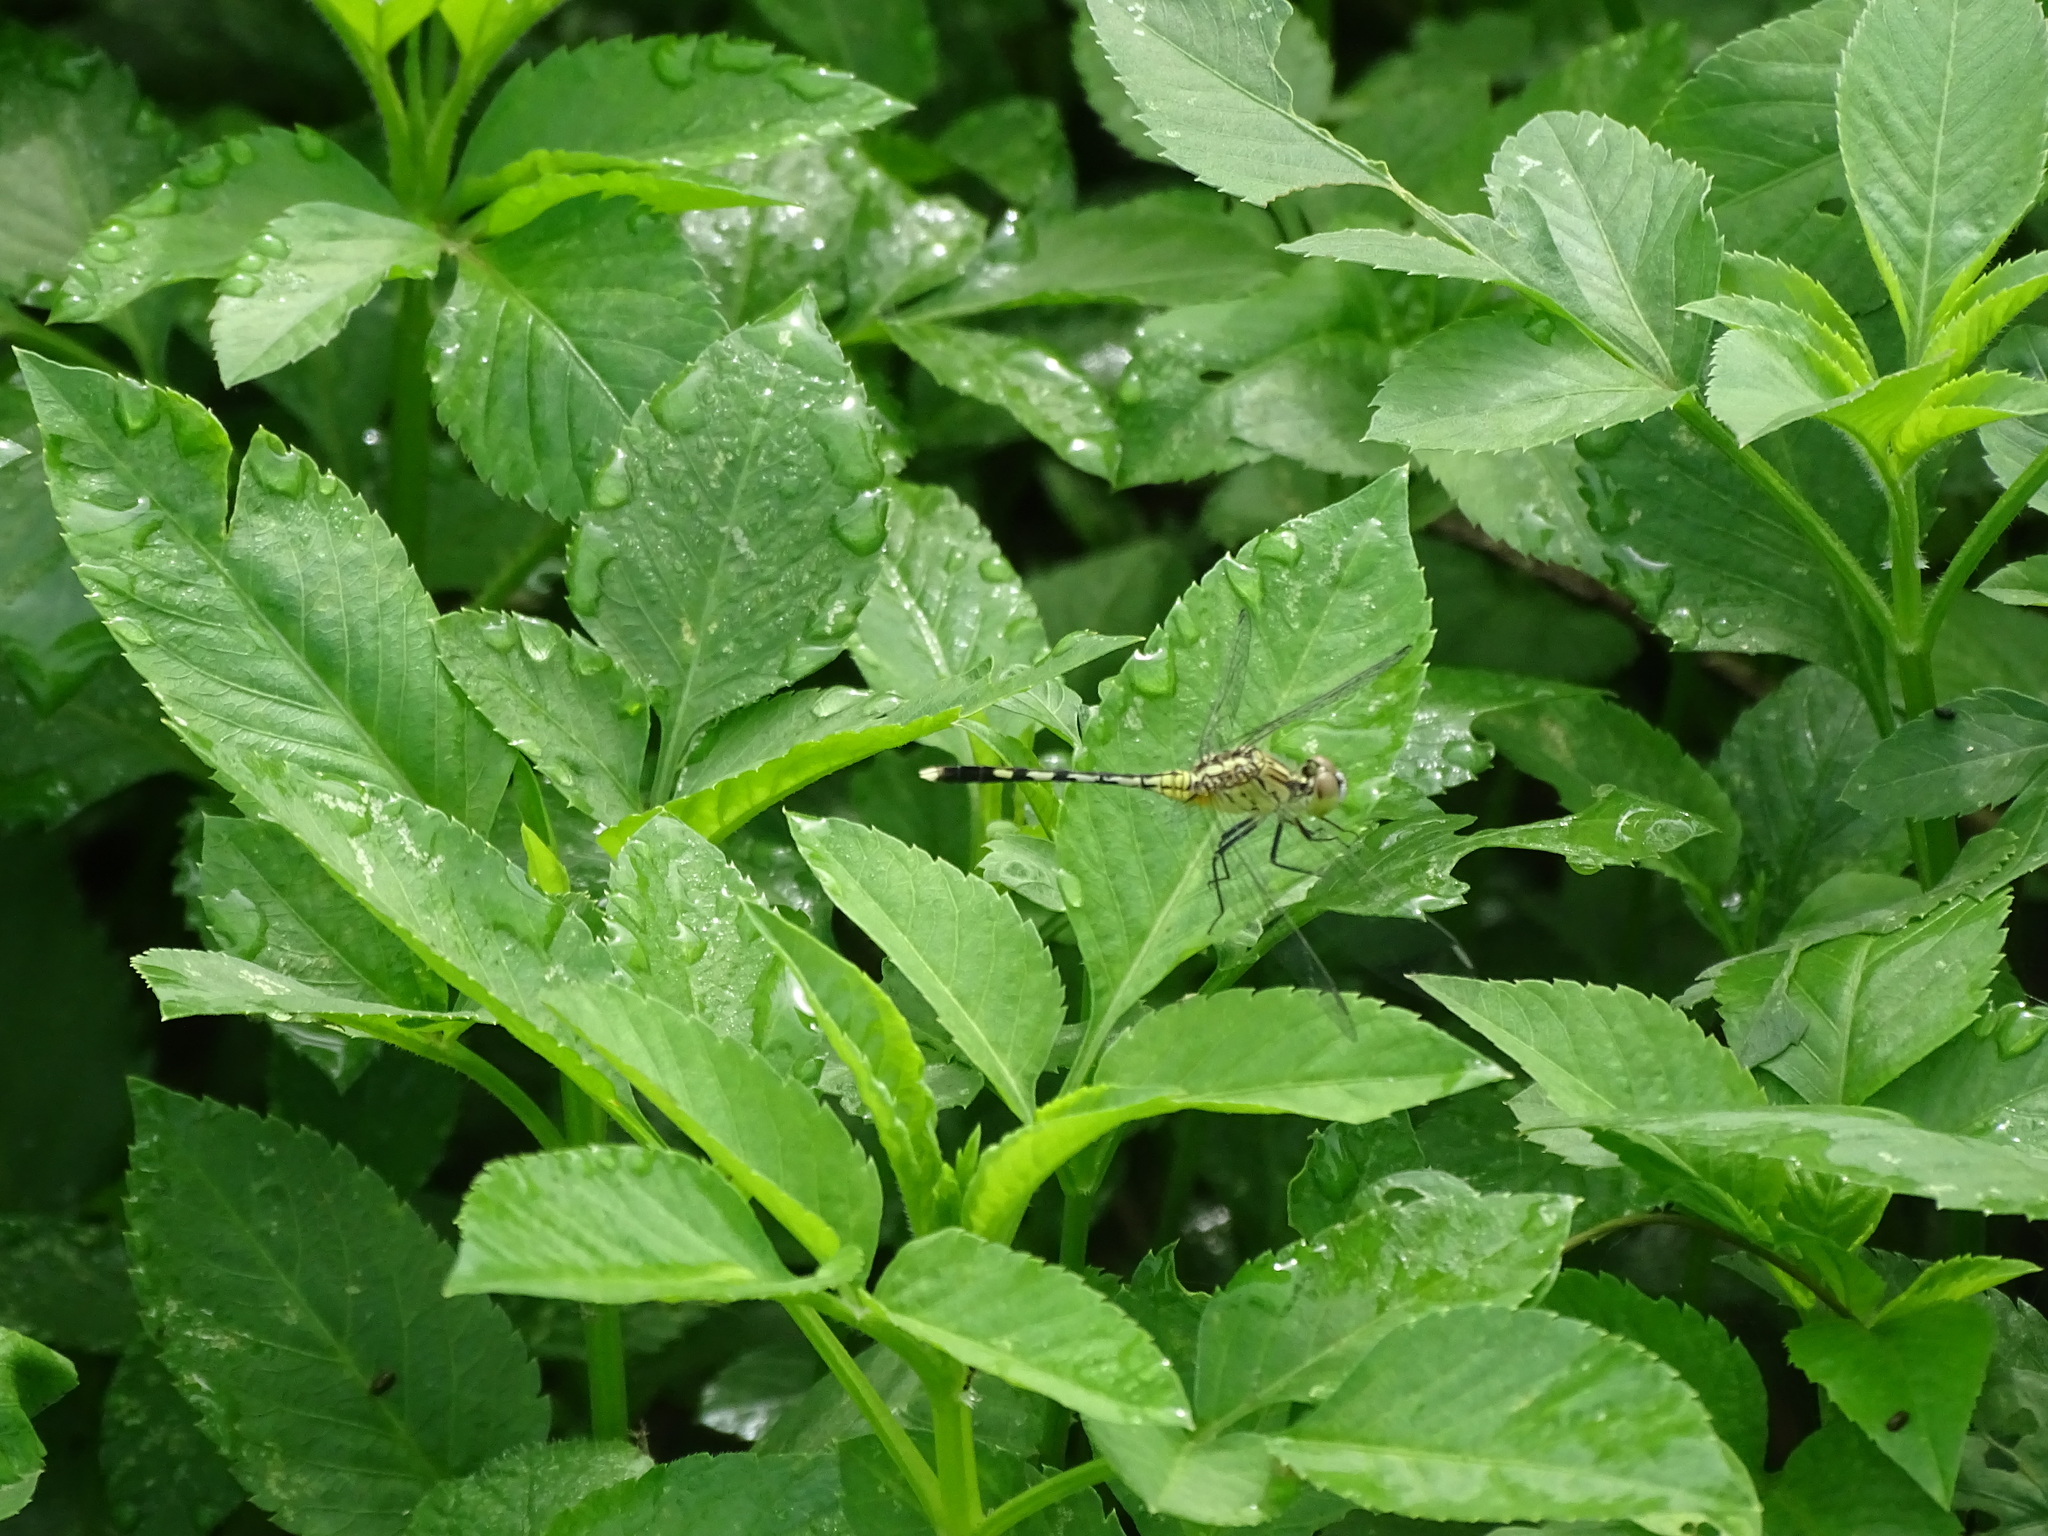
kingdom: Animalia
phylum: Arthropoda
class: Insecta
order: Odonata
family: Libellulidae
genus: Diplacodes
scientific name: Diplacodes trivialis
